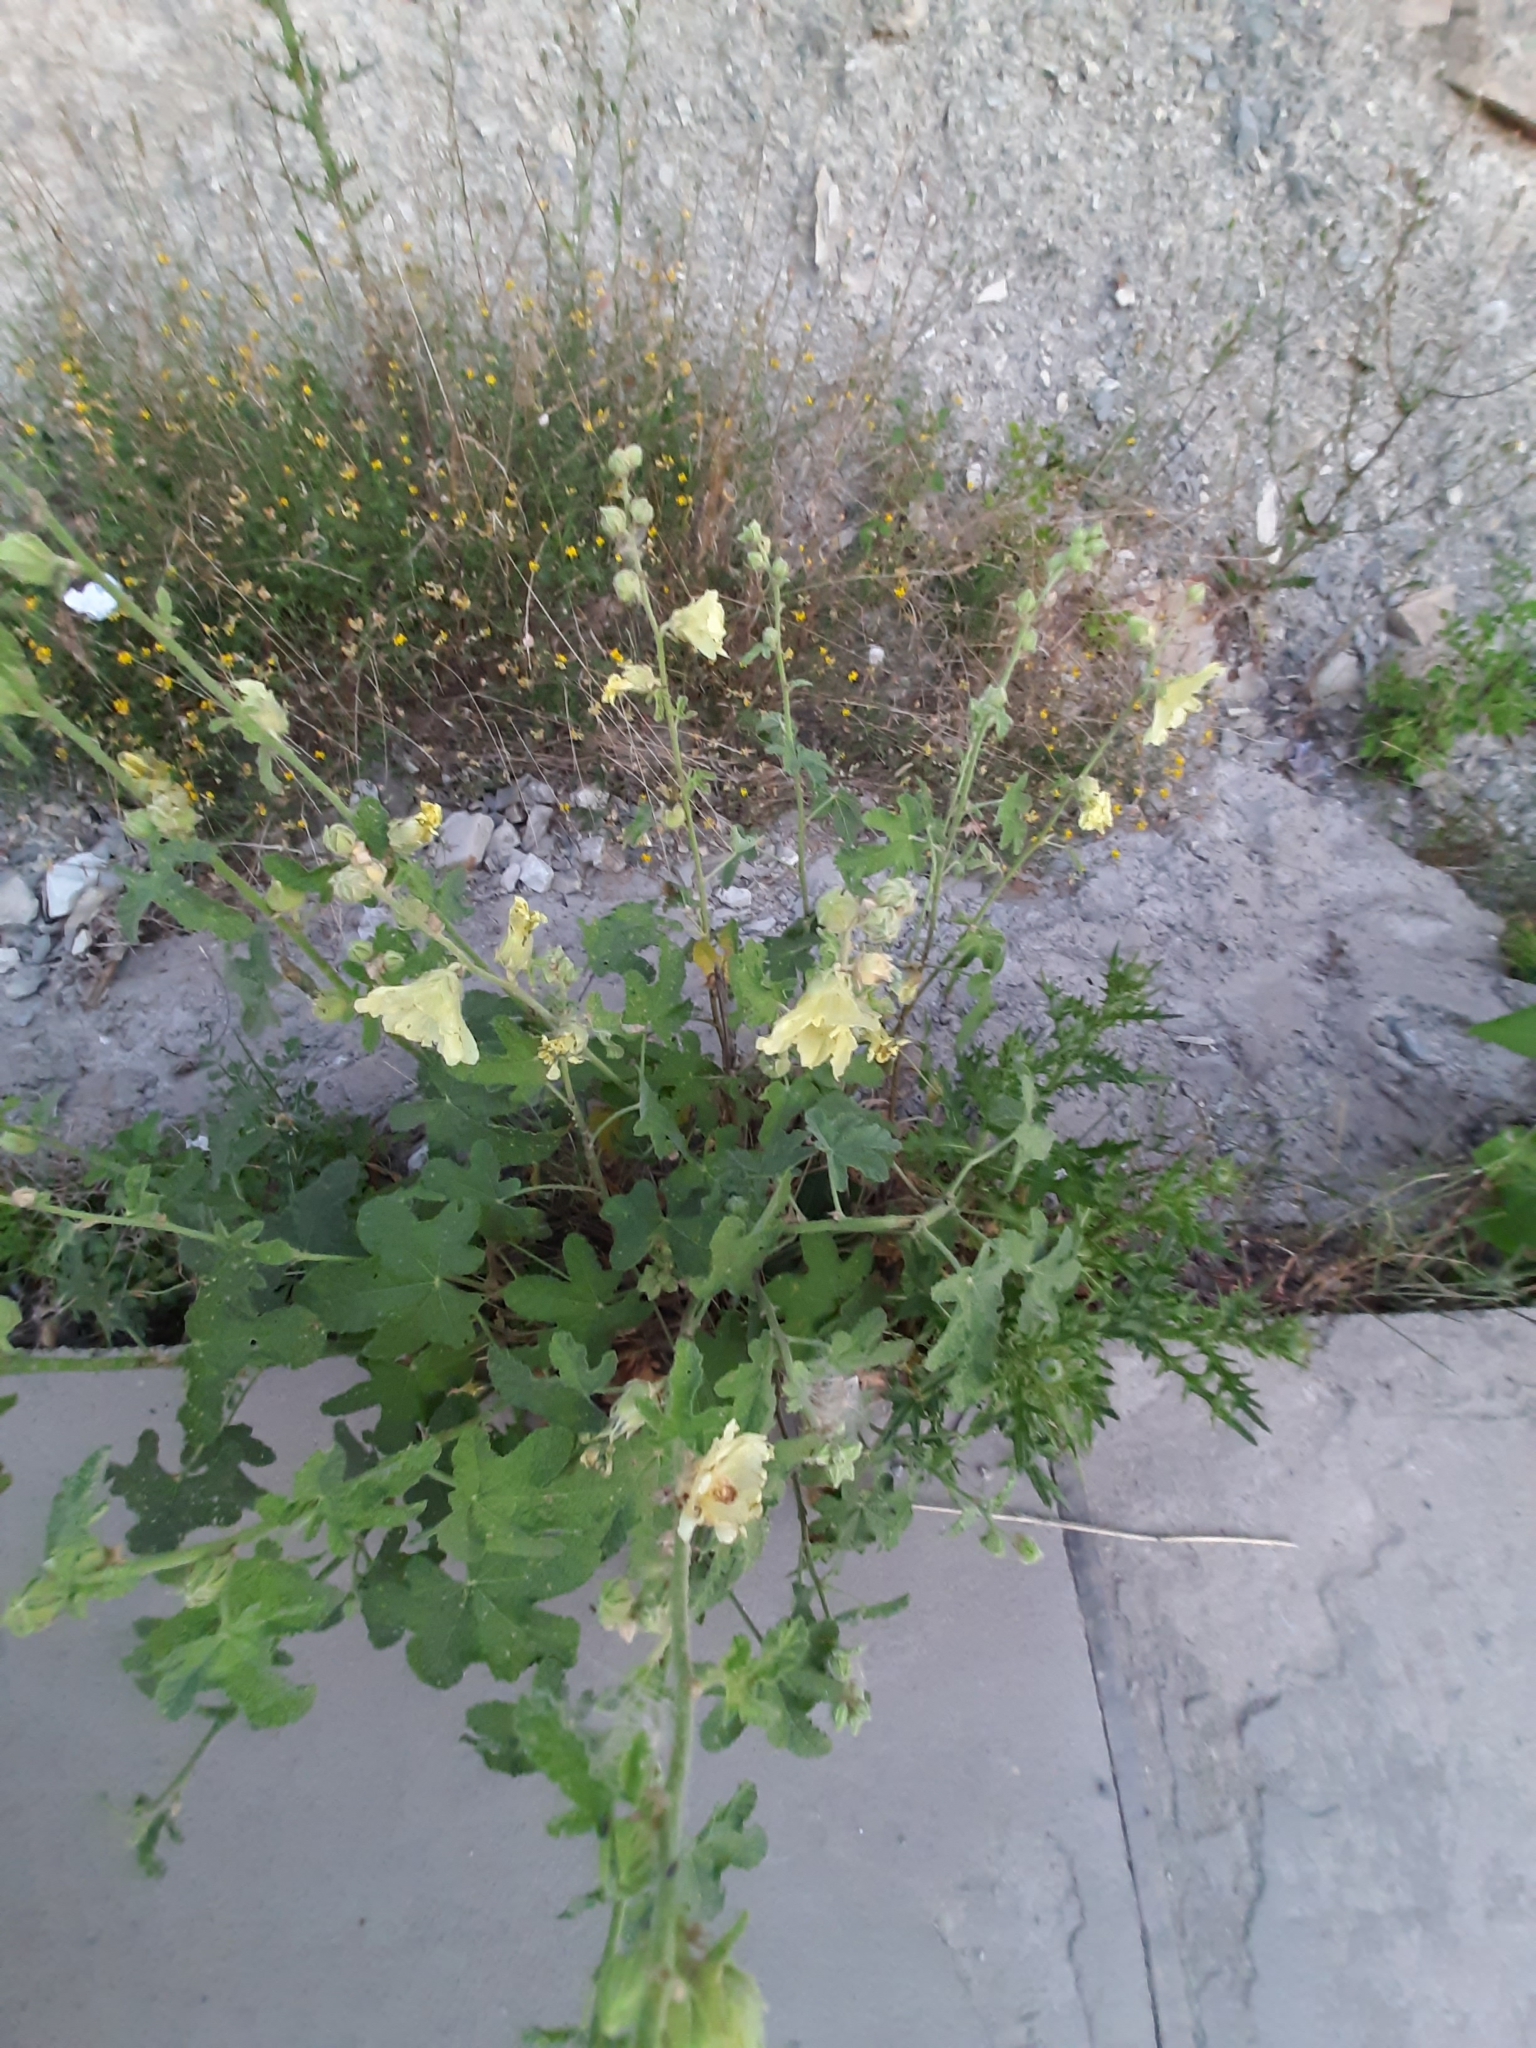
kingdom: Plantae
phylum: Tracheophyta
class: Magnoliopsida
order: Malvales
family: Malvaceae
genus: Alcea
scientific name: Alcea rugosa
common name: Russian hollyhock
